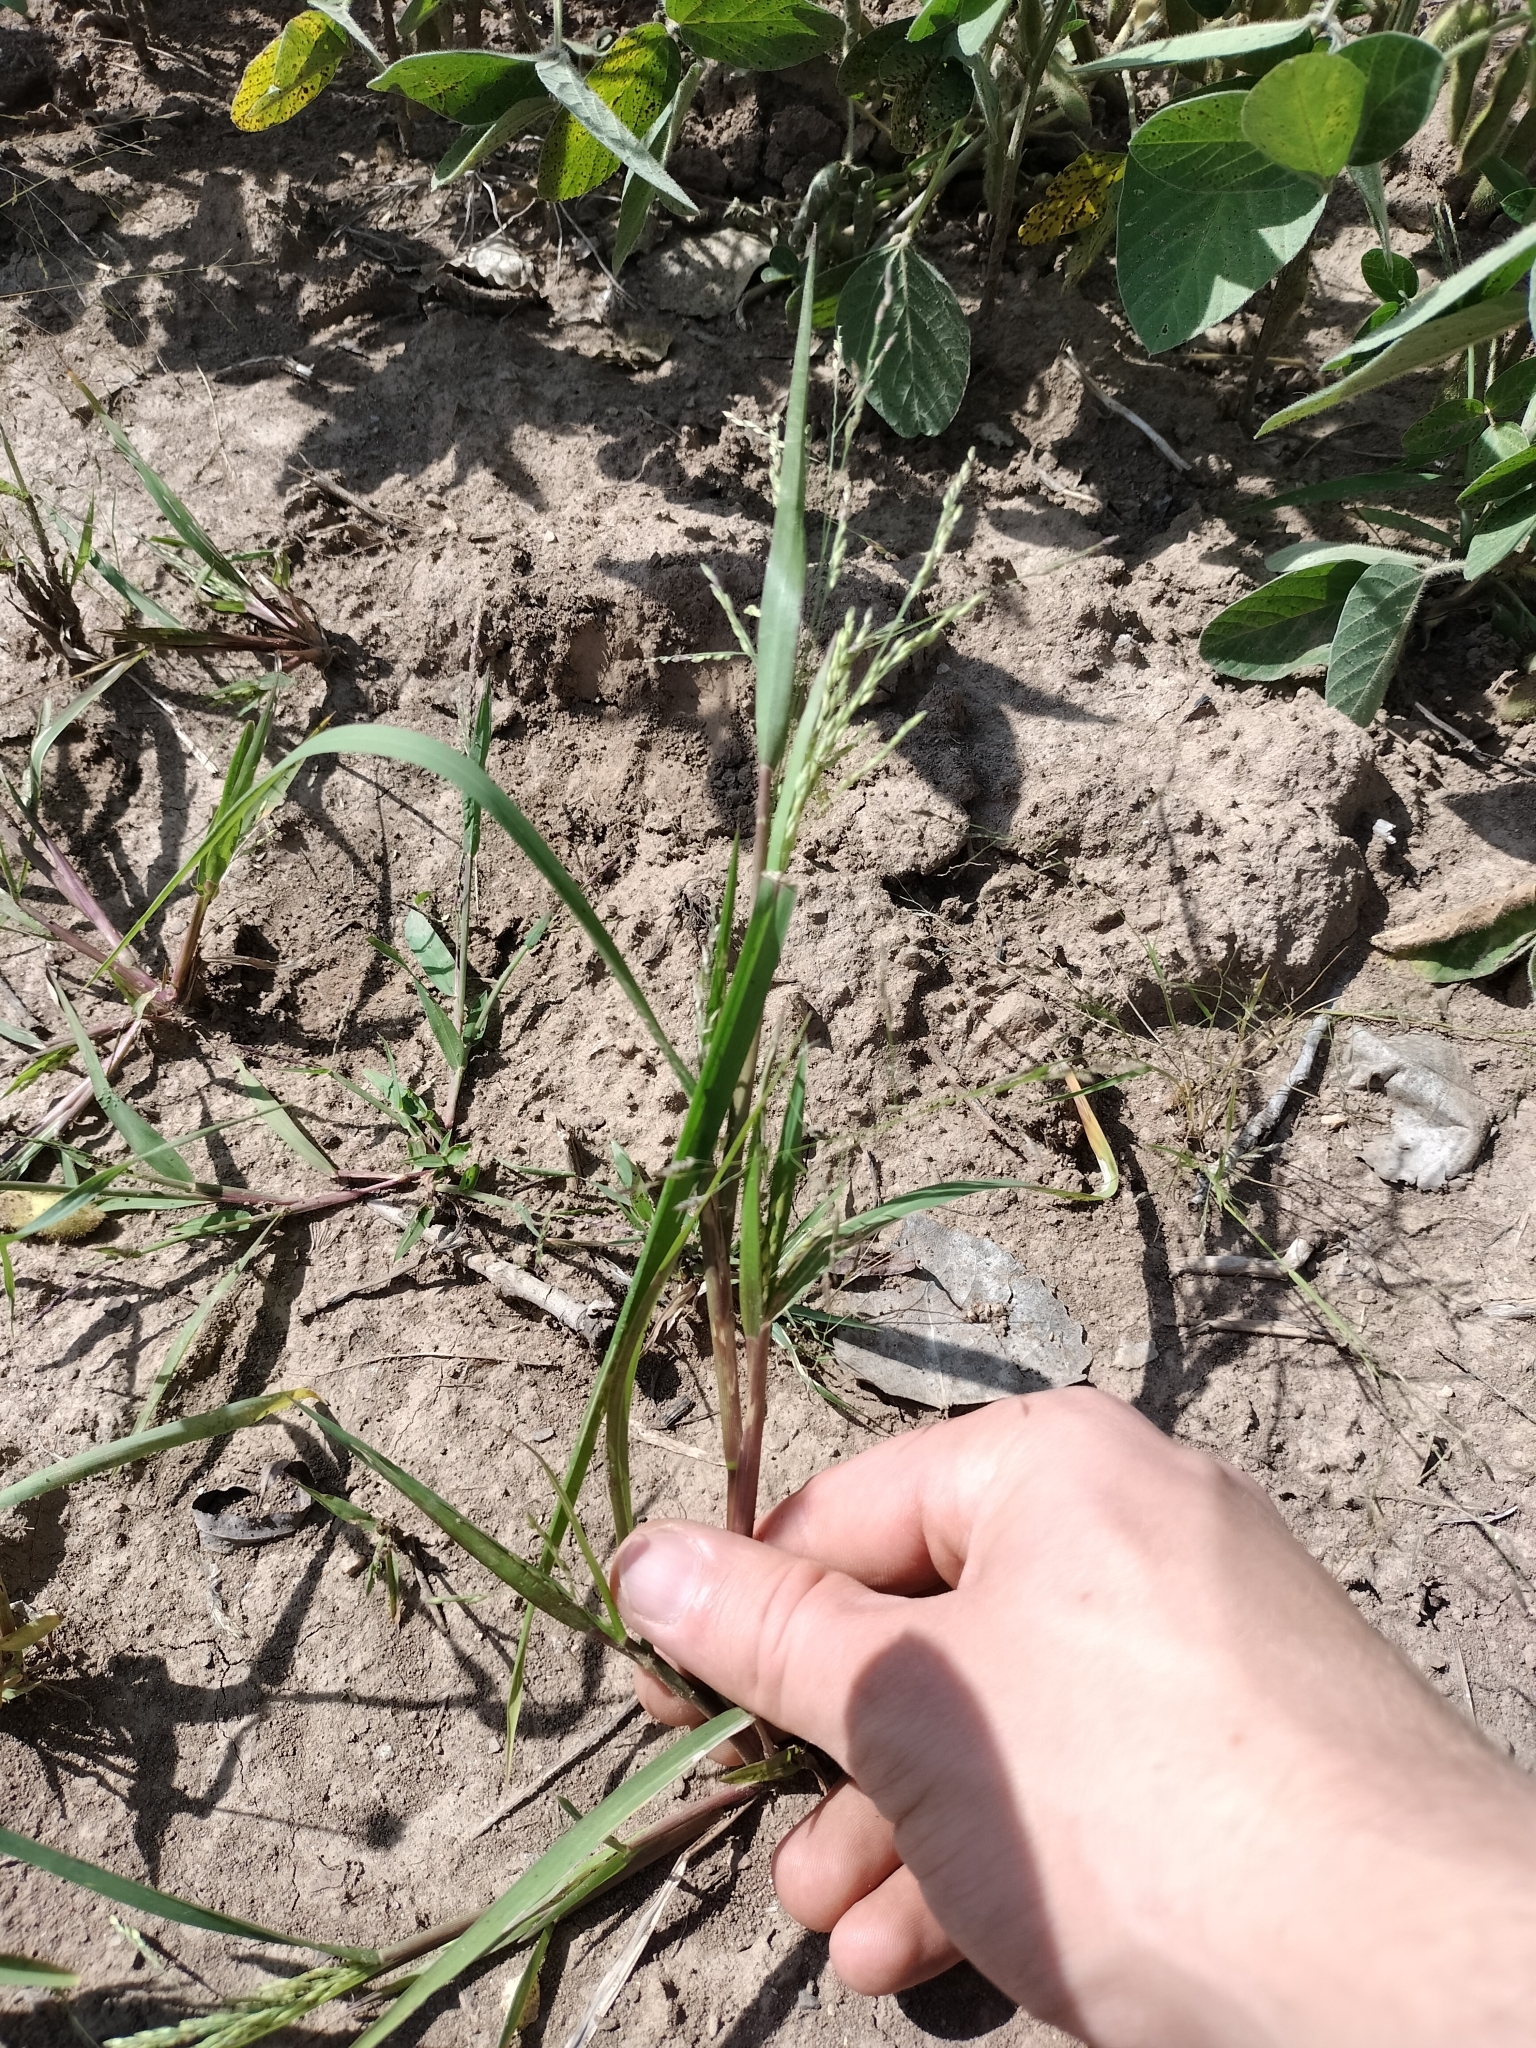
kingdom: Plantae
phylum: Tracheophyta
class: Liliopsida
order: Poales
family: Poaceae
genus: Panicum
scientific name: Panicum dichotomiflorum
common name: Autumn millet
